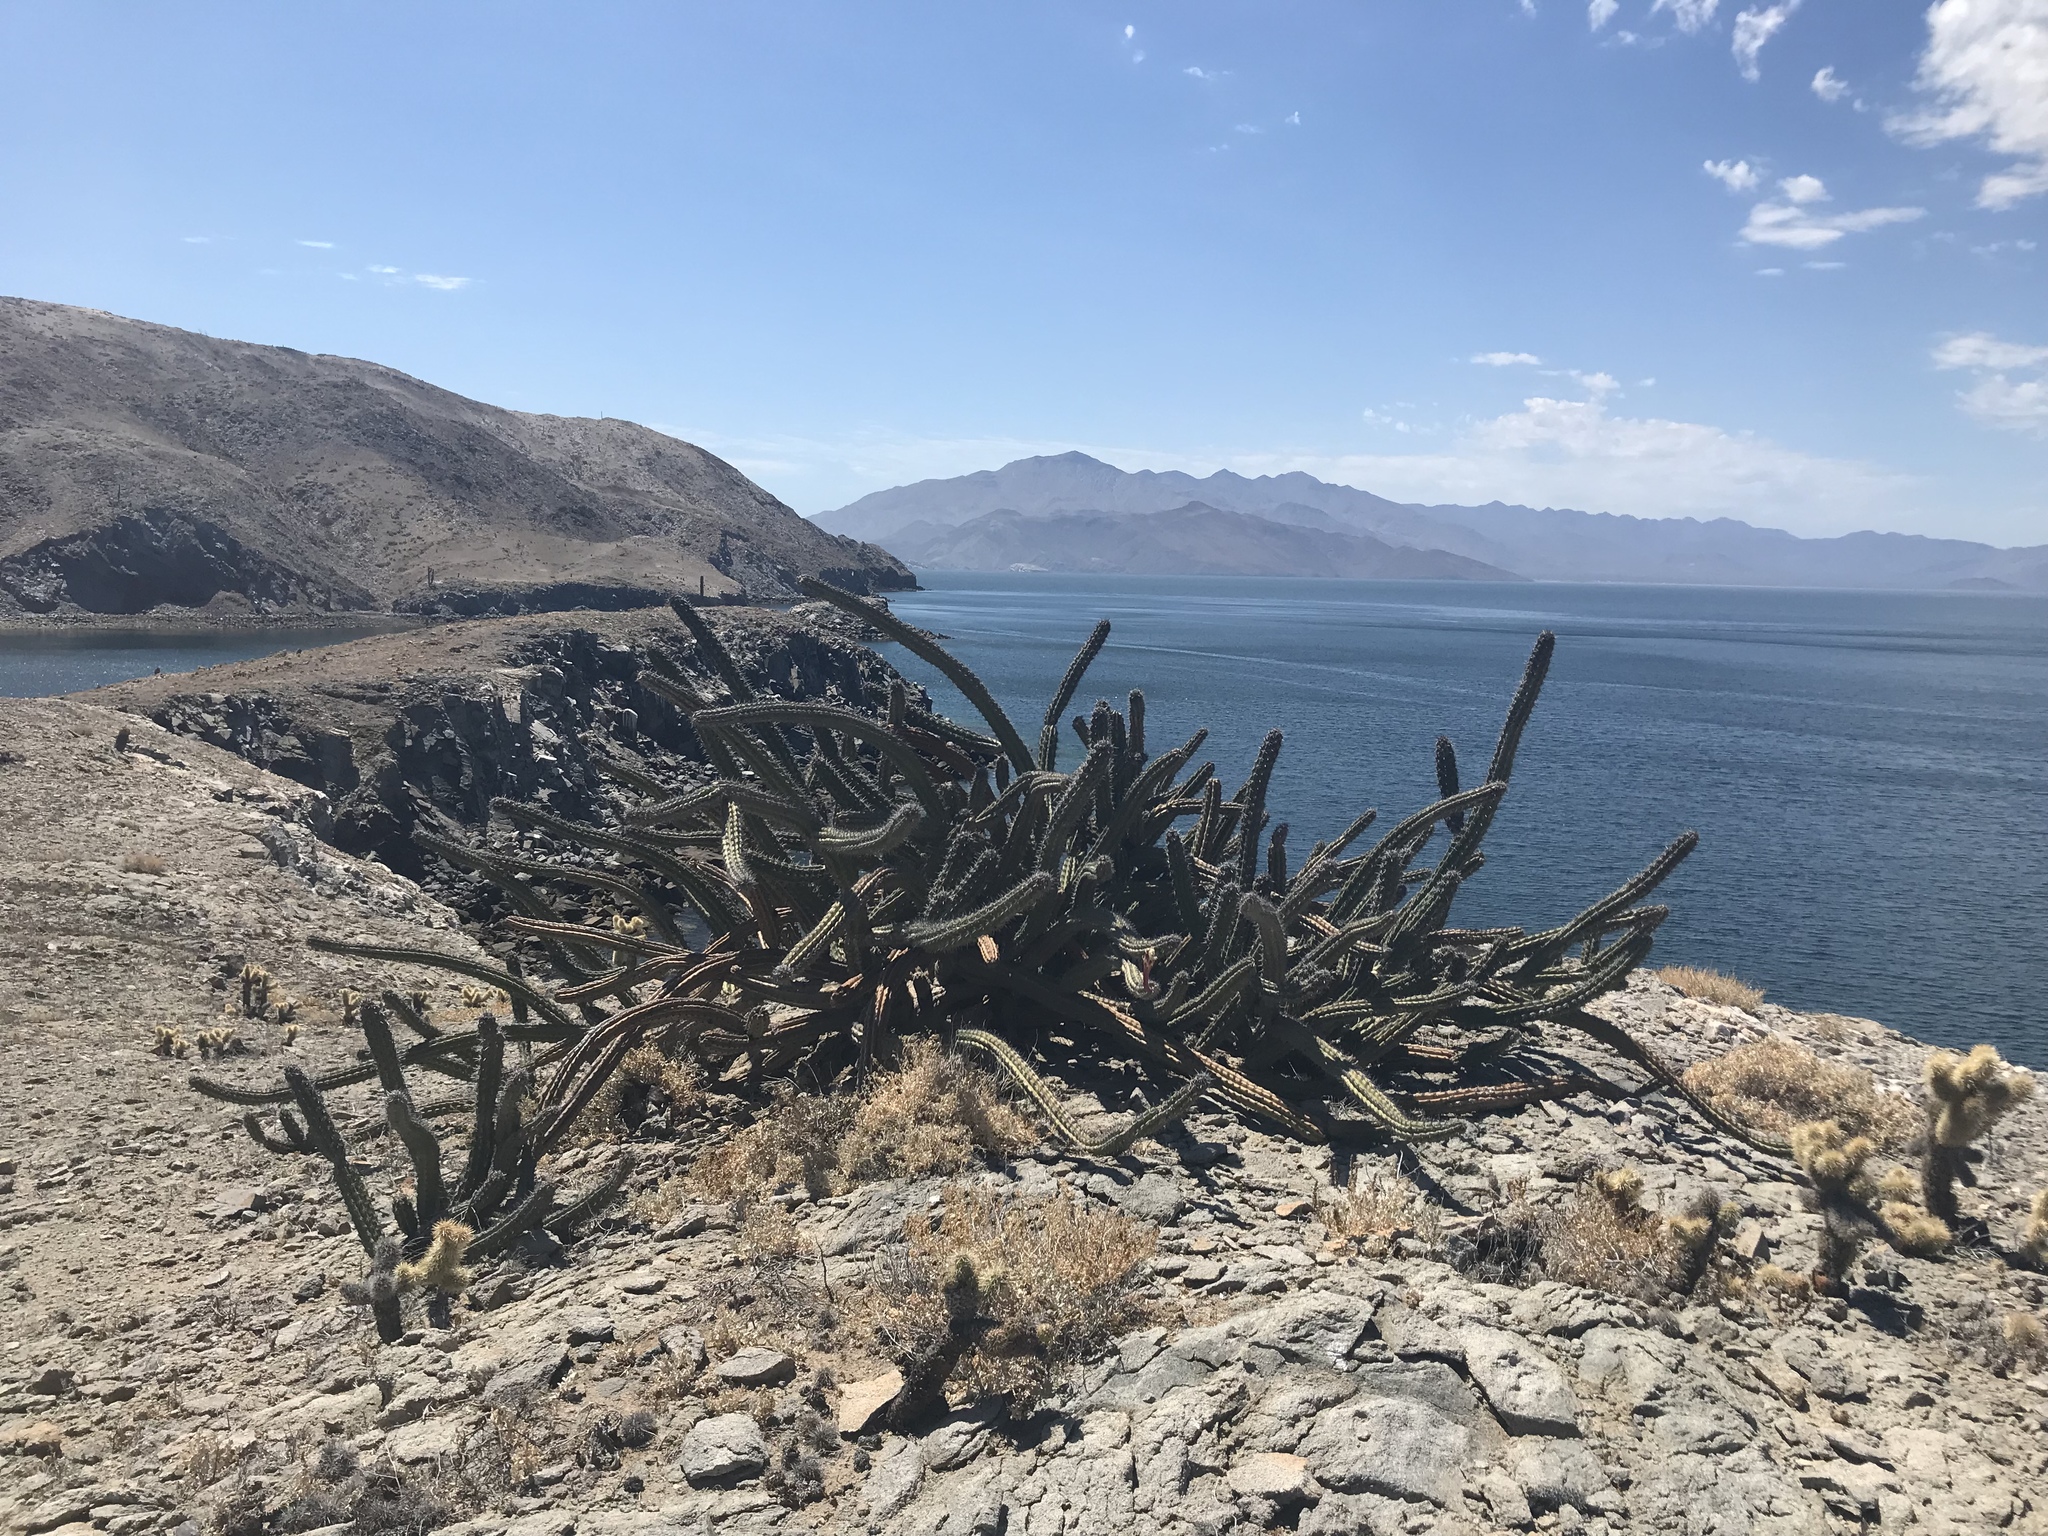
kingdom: Plantae
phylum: Tracheophyta
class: Magnoliopsida
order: Caryophyllales
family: Cactaceae
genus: Stenocereus
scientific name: Stenocereus gummosus
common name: Dagger cactus
